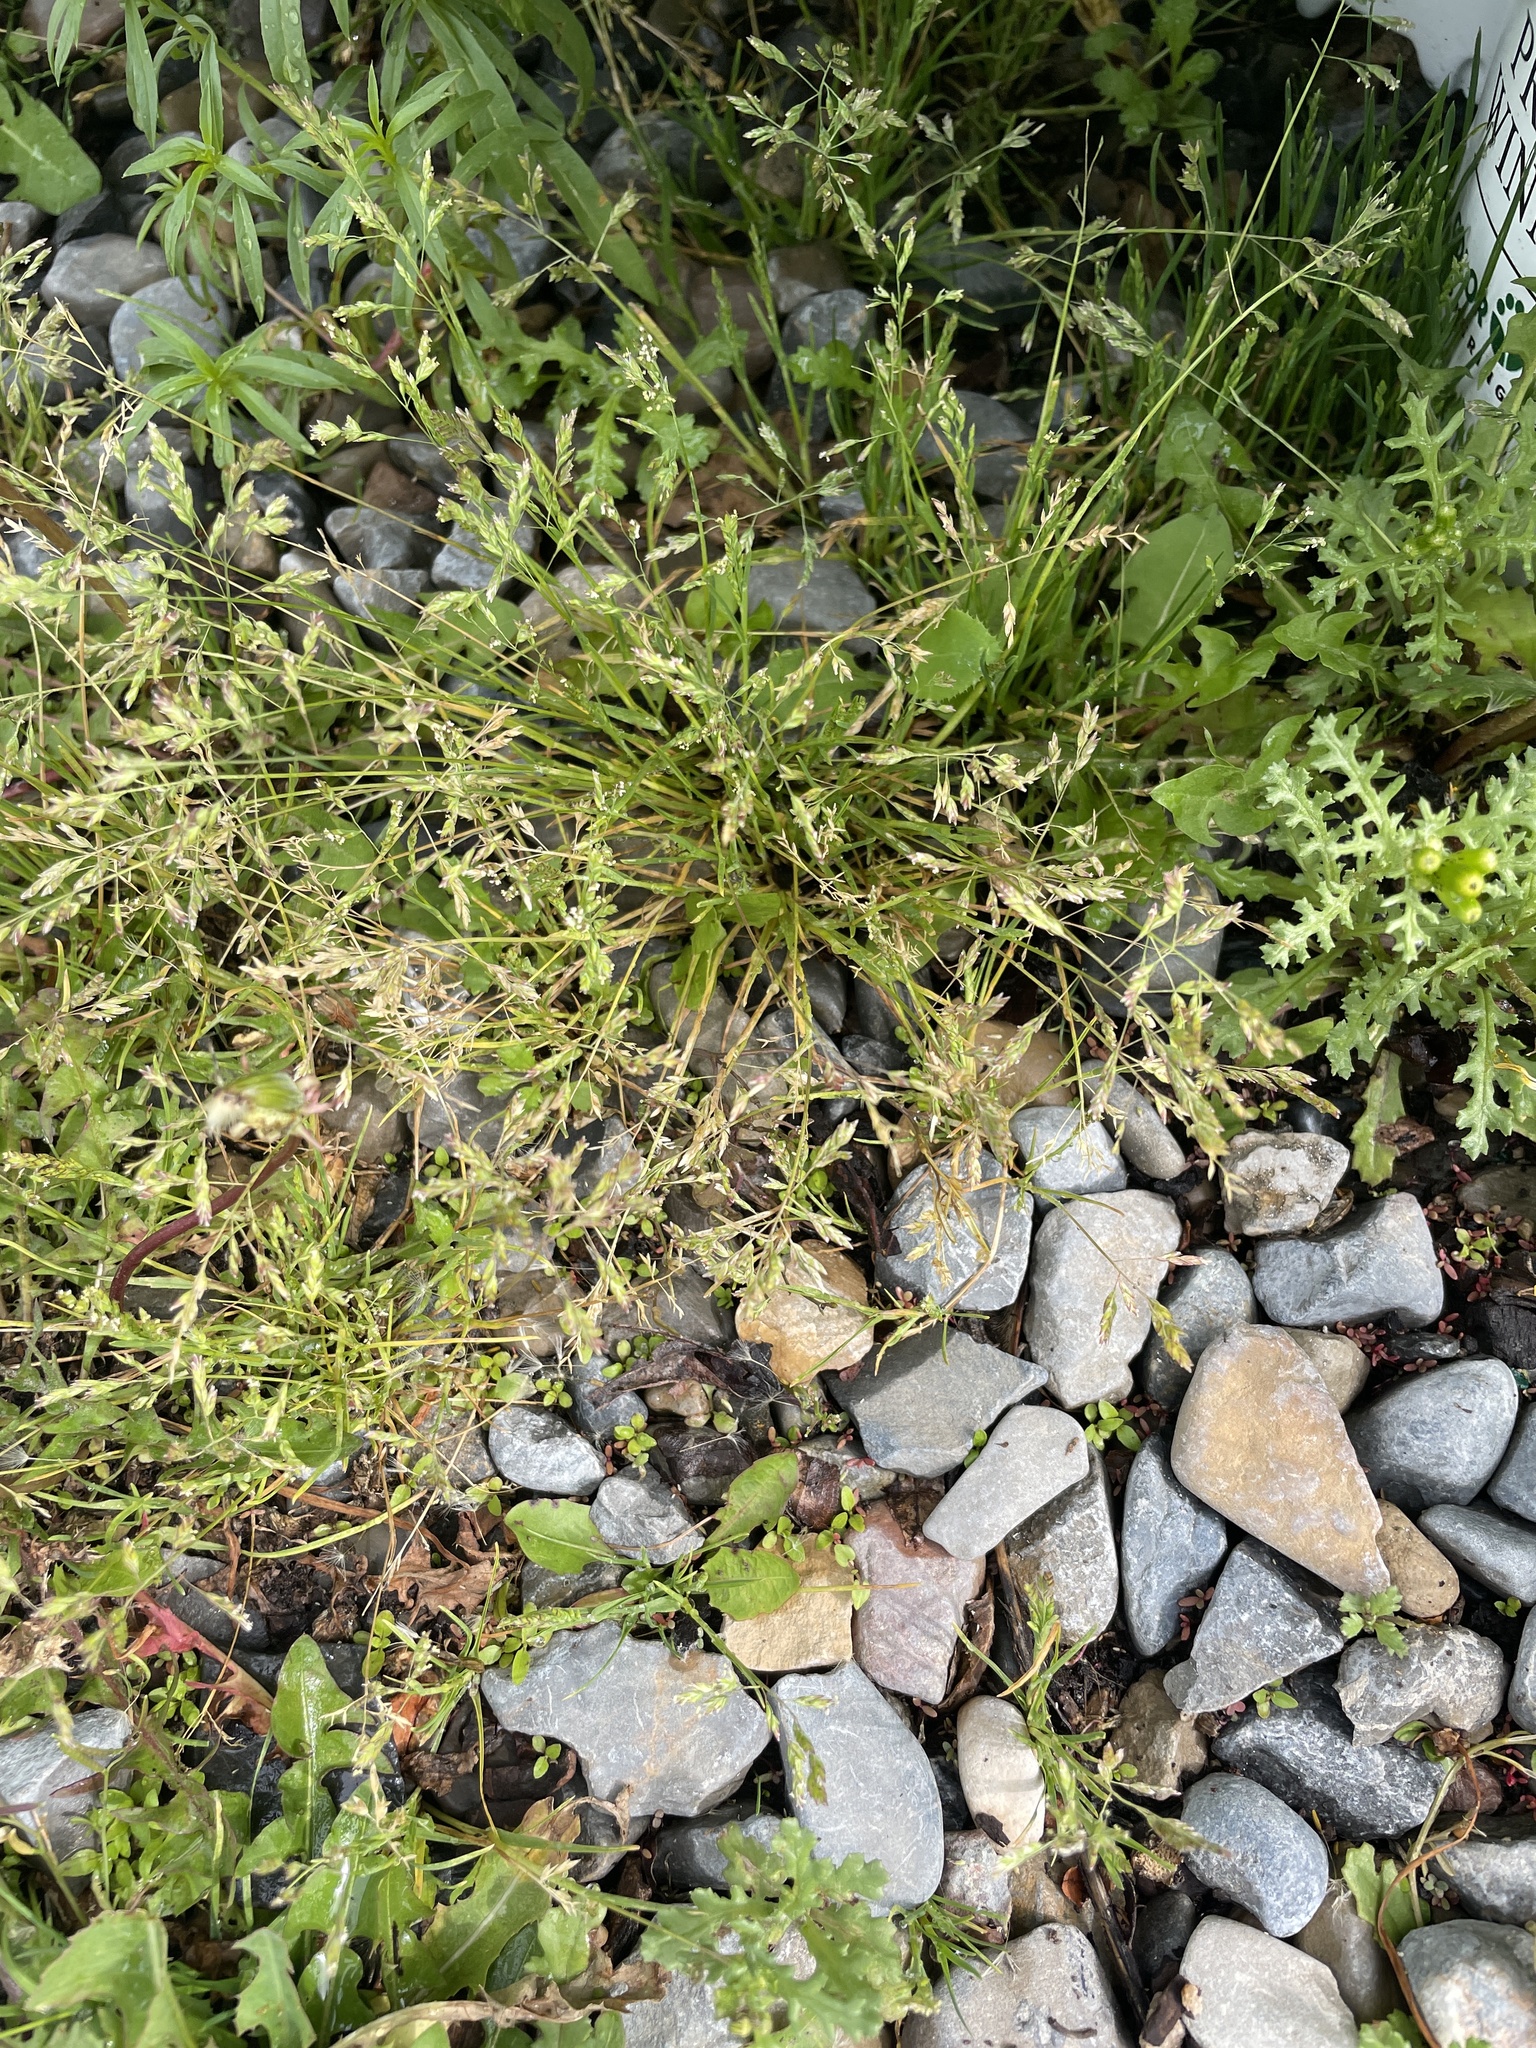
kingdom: Plantae
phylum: Tracheophyta
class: Liliopsida
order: Poales
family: Poaceae
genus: Poa
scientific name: Poa annua
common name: Annual bluegrass
